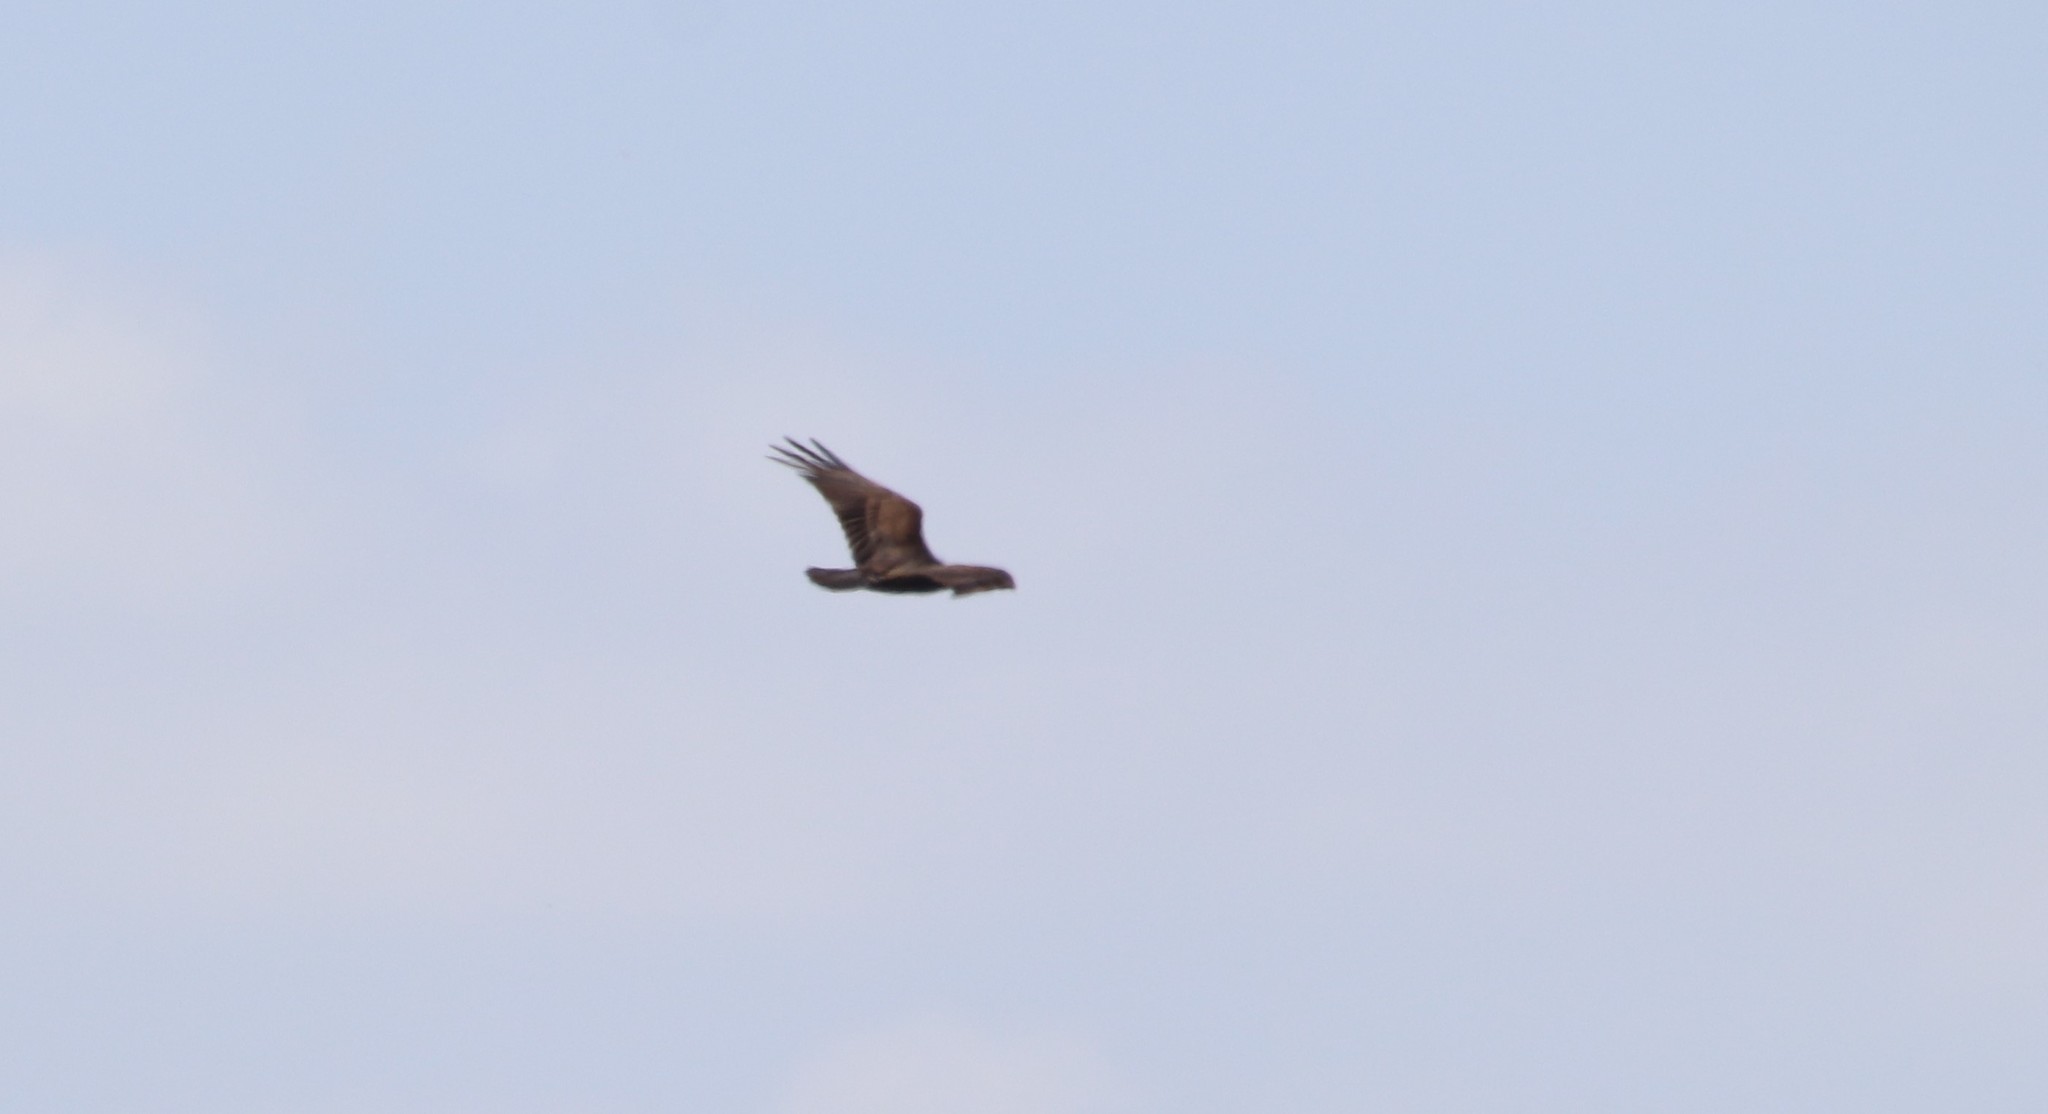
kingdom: Animalia
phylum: Chordata
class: Aves
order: Accipitriformes
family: Cathartidae
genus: Cathartes
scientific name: Cathartes aura
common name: Turkey vulture
